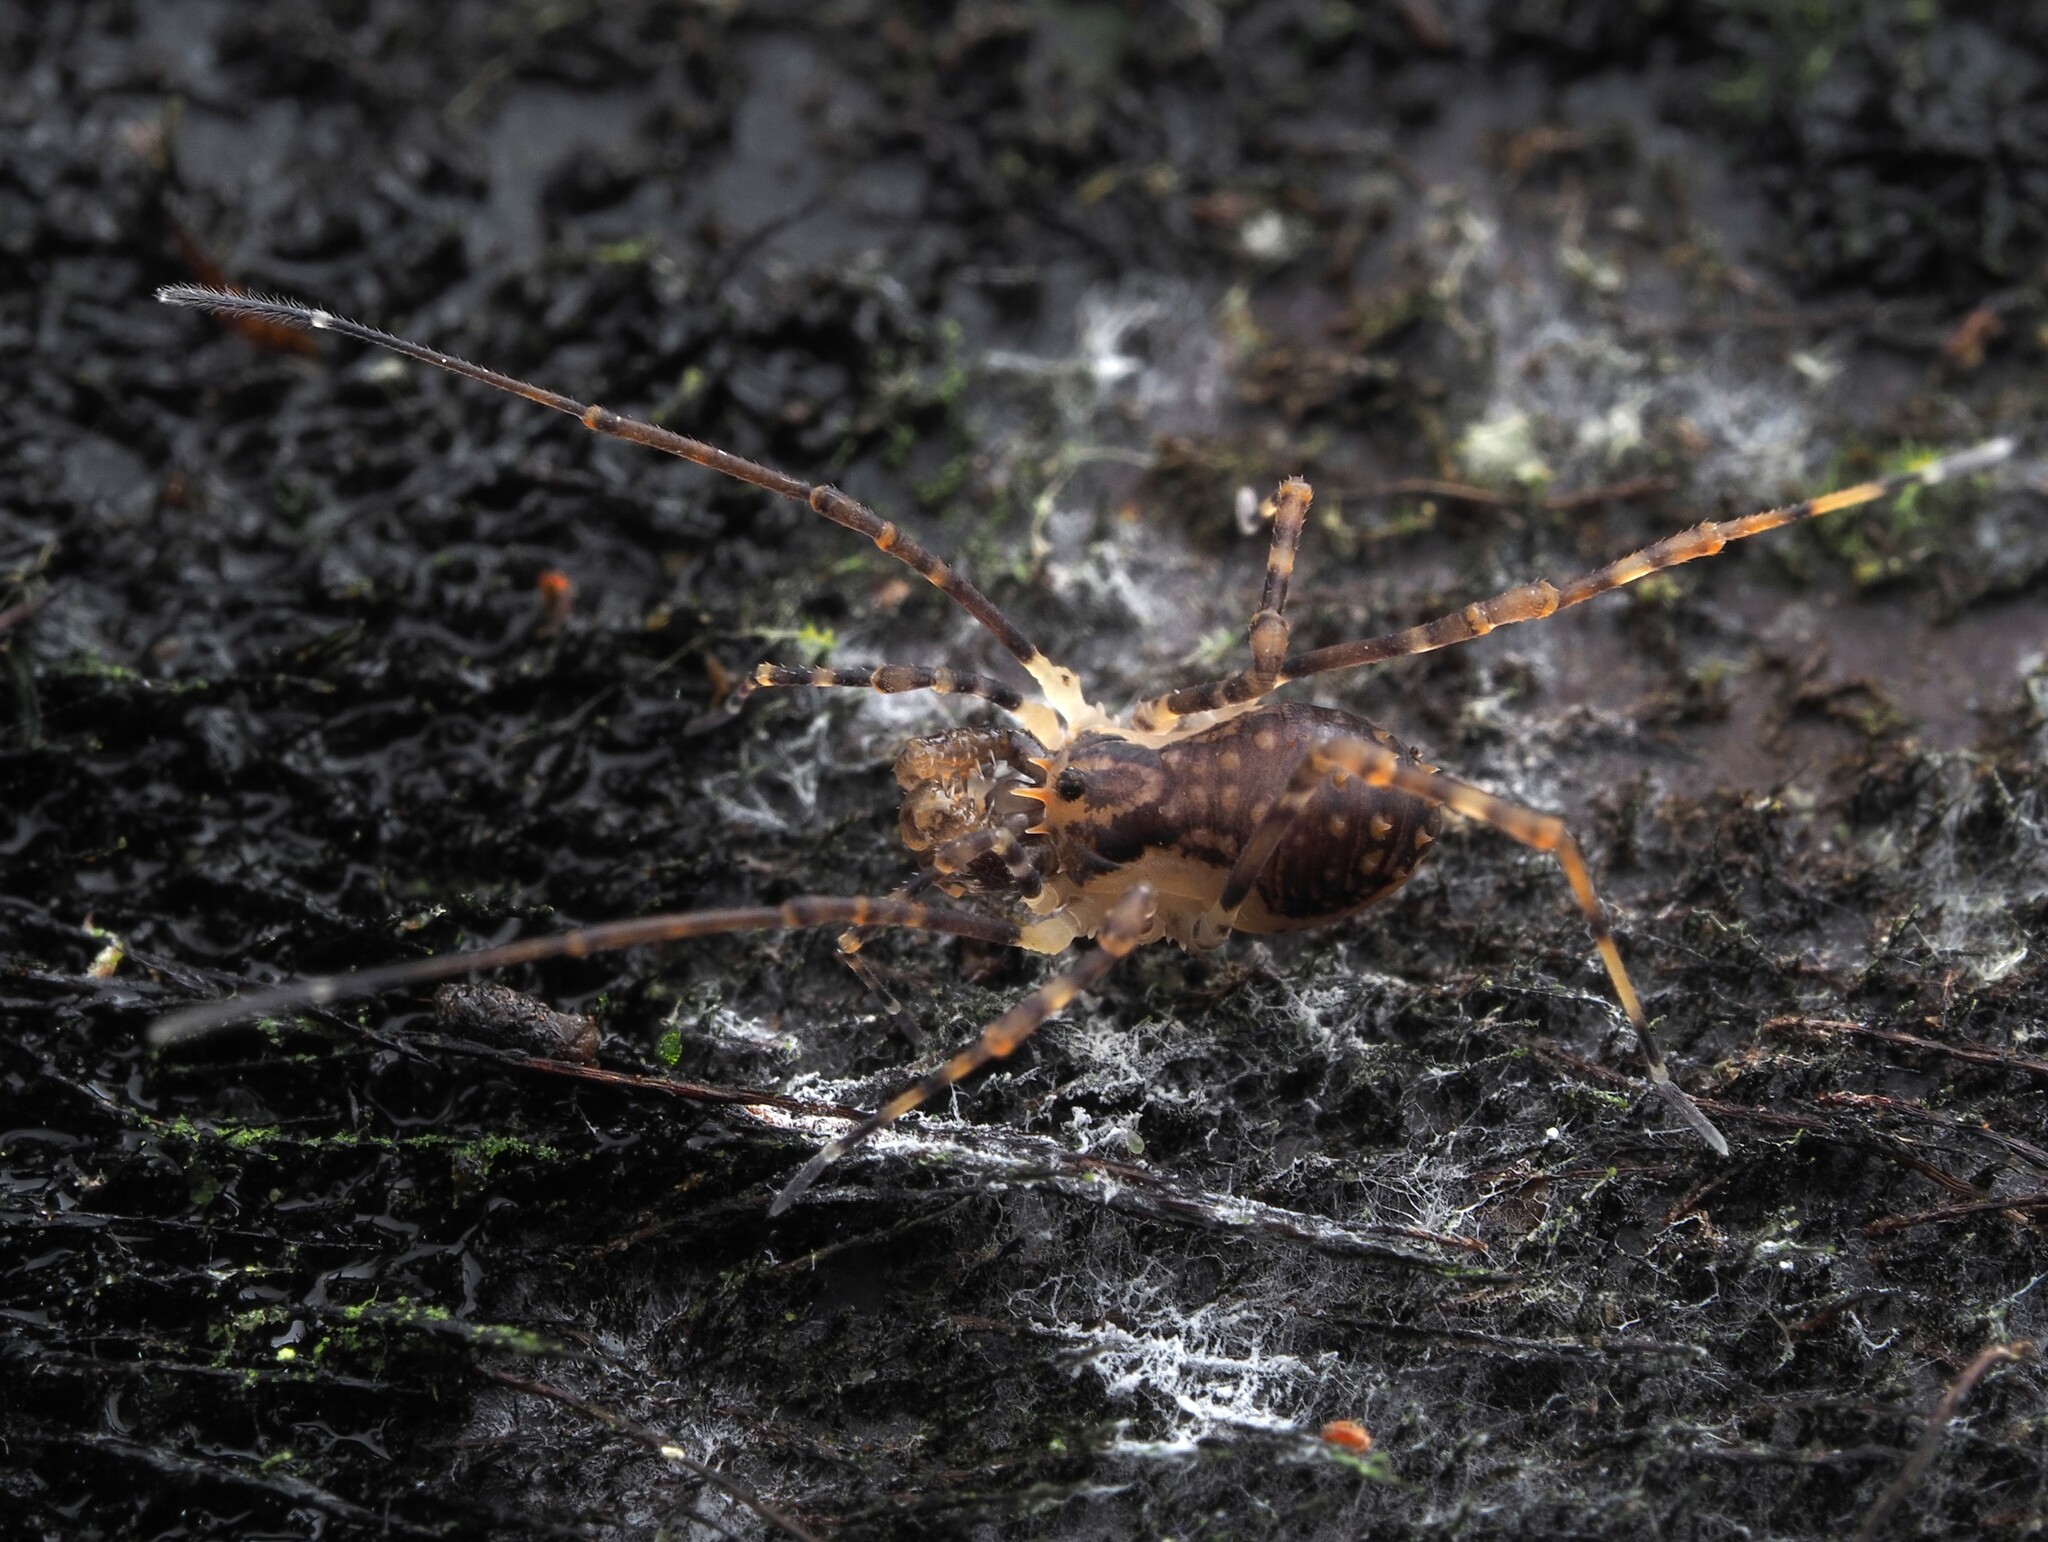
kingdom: Animalia
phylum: Arthropoda
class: Arachnida
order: Opiliones
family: Triaenonychidae
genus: Algidia
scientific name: Algidia chiltoni
